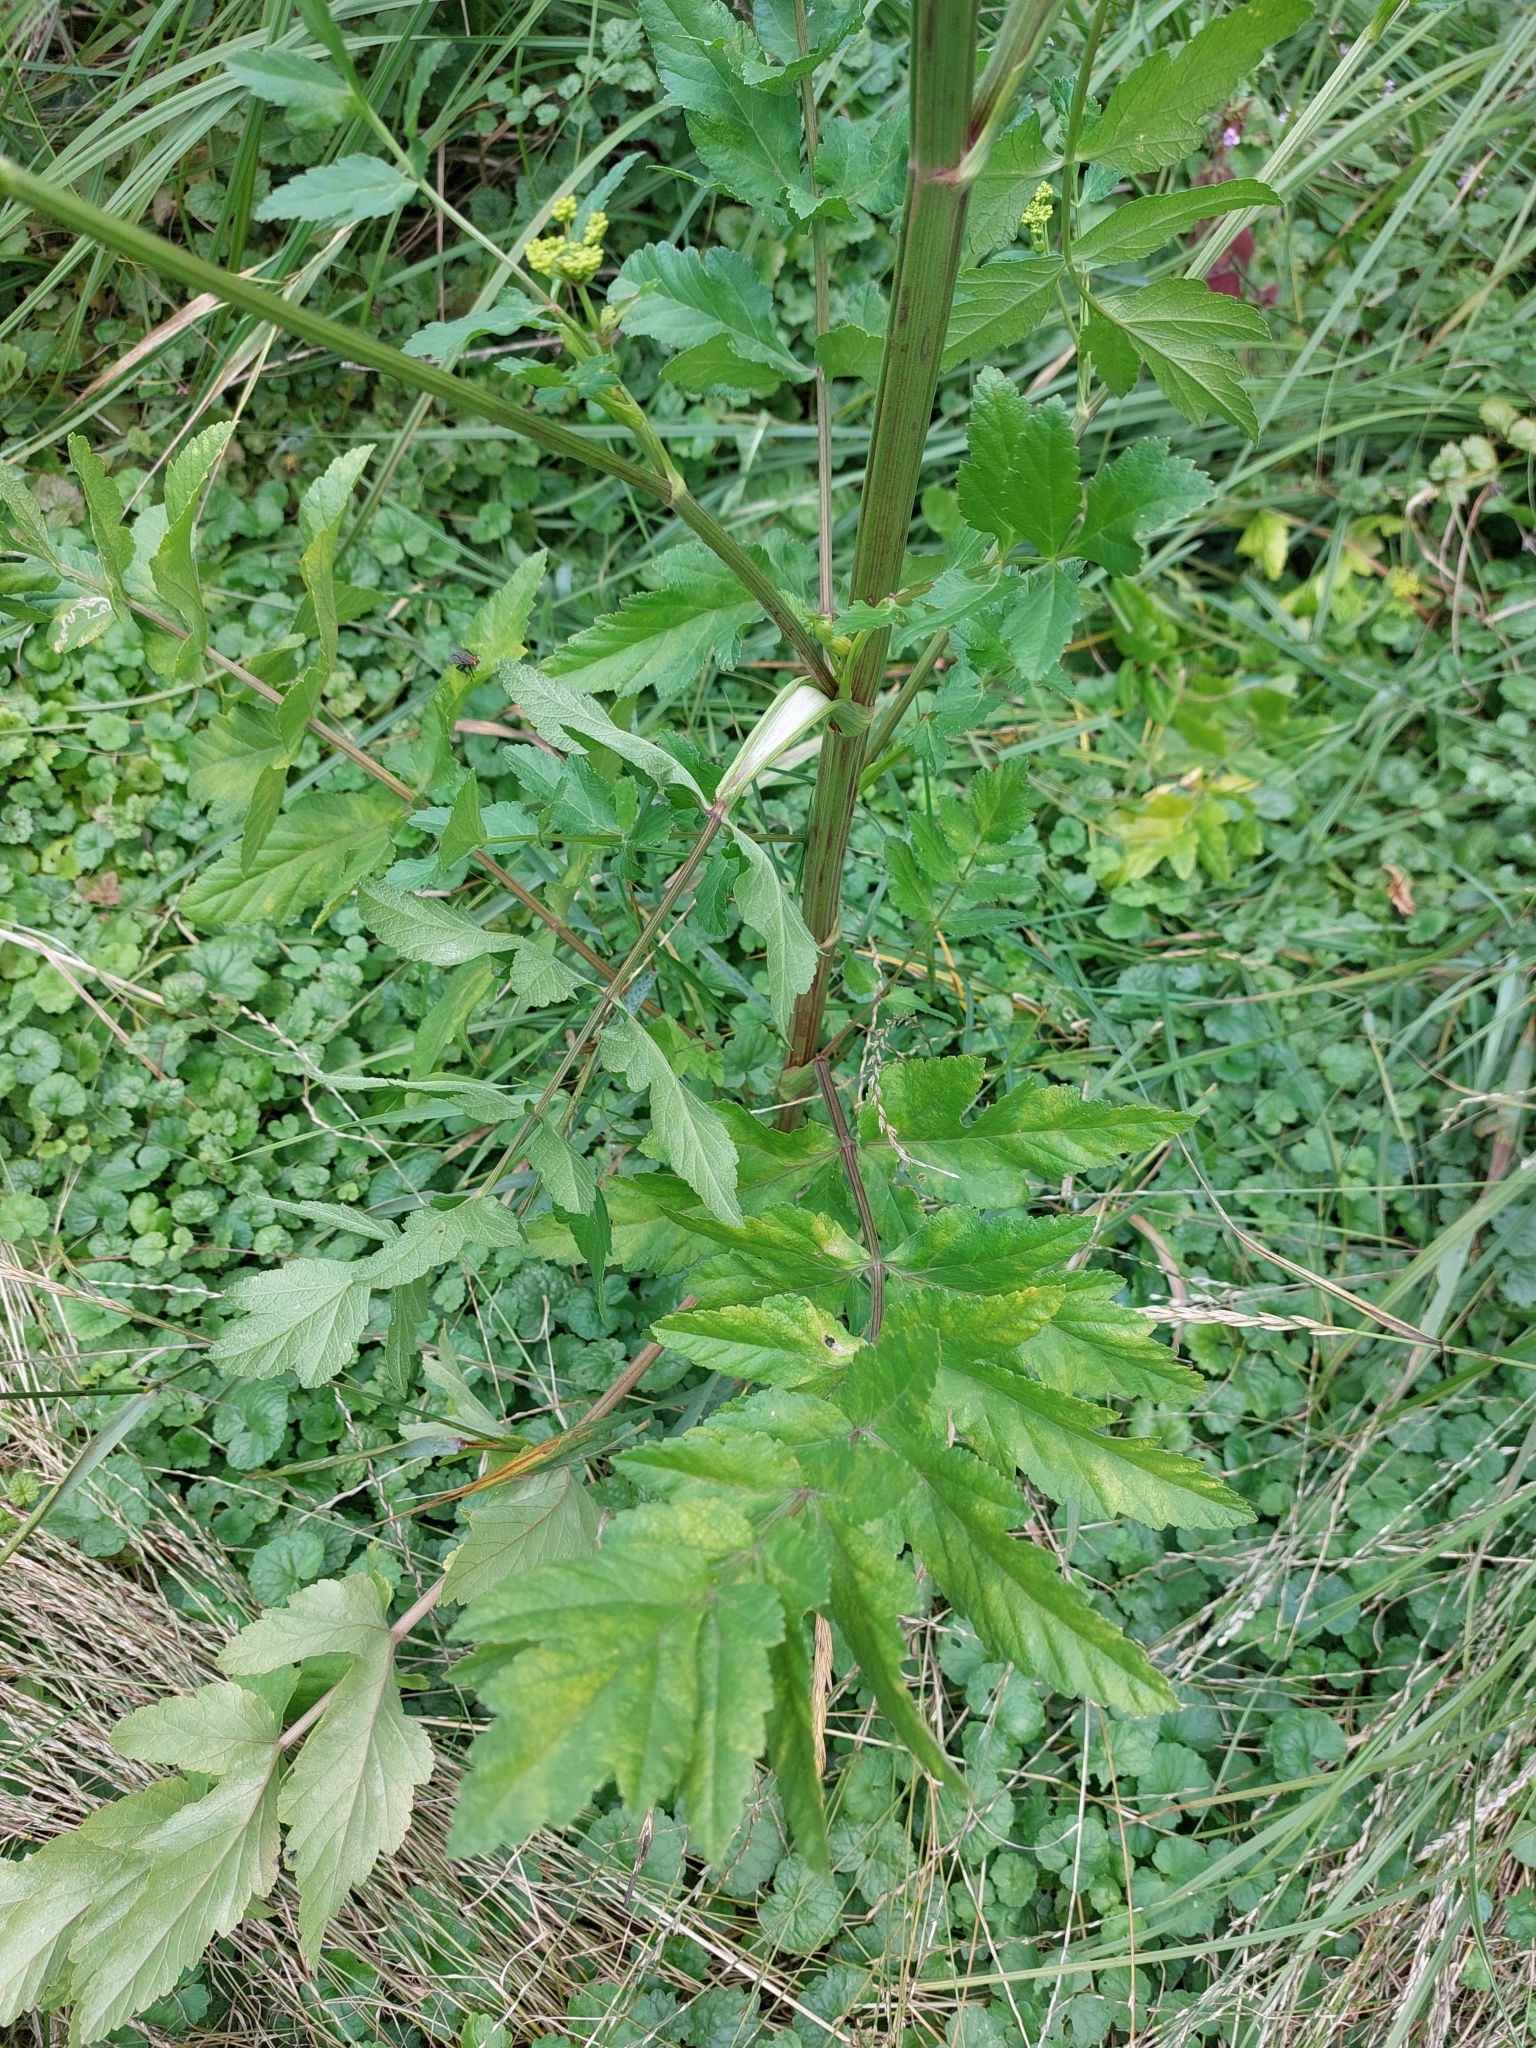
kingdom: Plantae
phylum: Tracheophyta
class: Magnoliopsida
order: Apiales
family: Apiaceae
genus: Pastinaca
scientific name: Pastinaca sativa
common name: Wild parsnip
